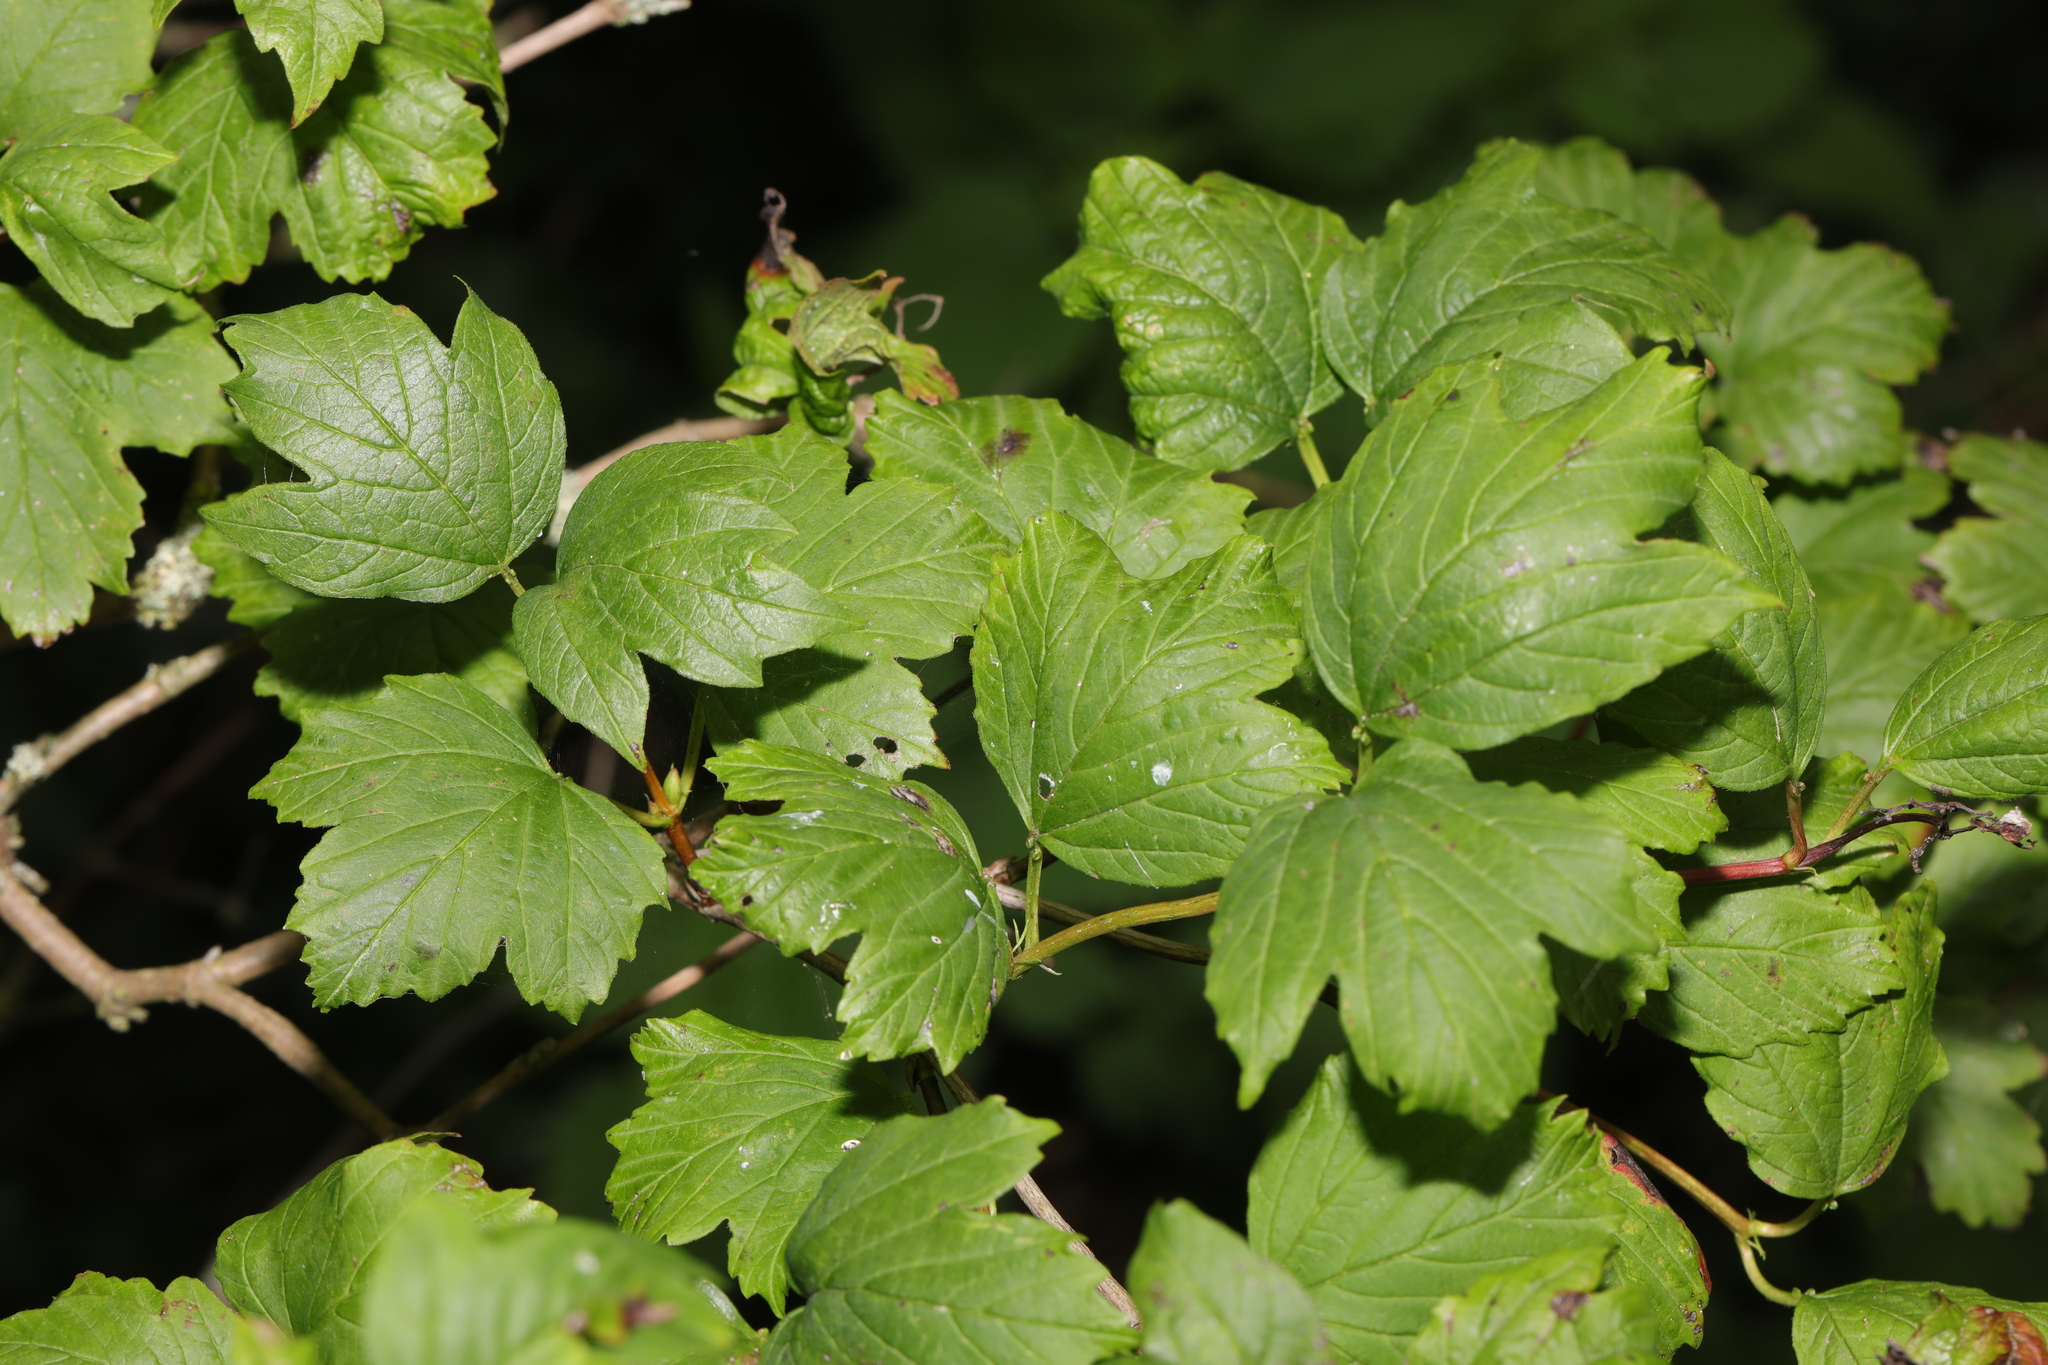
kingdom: Plantae
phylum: Tracheophyta
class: Magnoliopsida
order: Dipsacales
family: Viburnaceae
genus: Viburnum
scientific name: Viburnum opulus
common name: Guelder-rose
